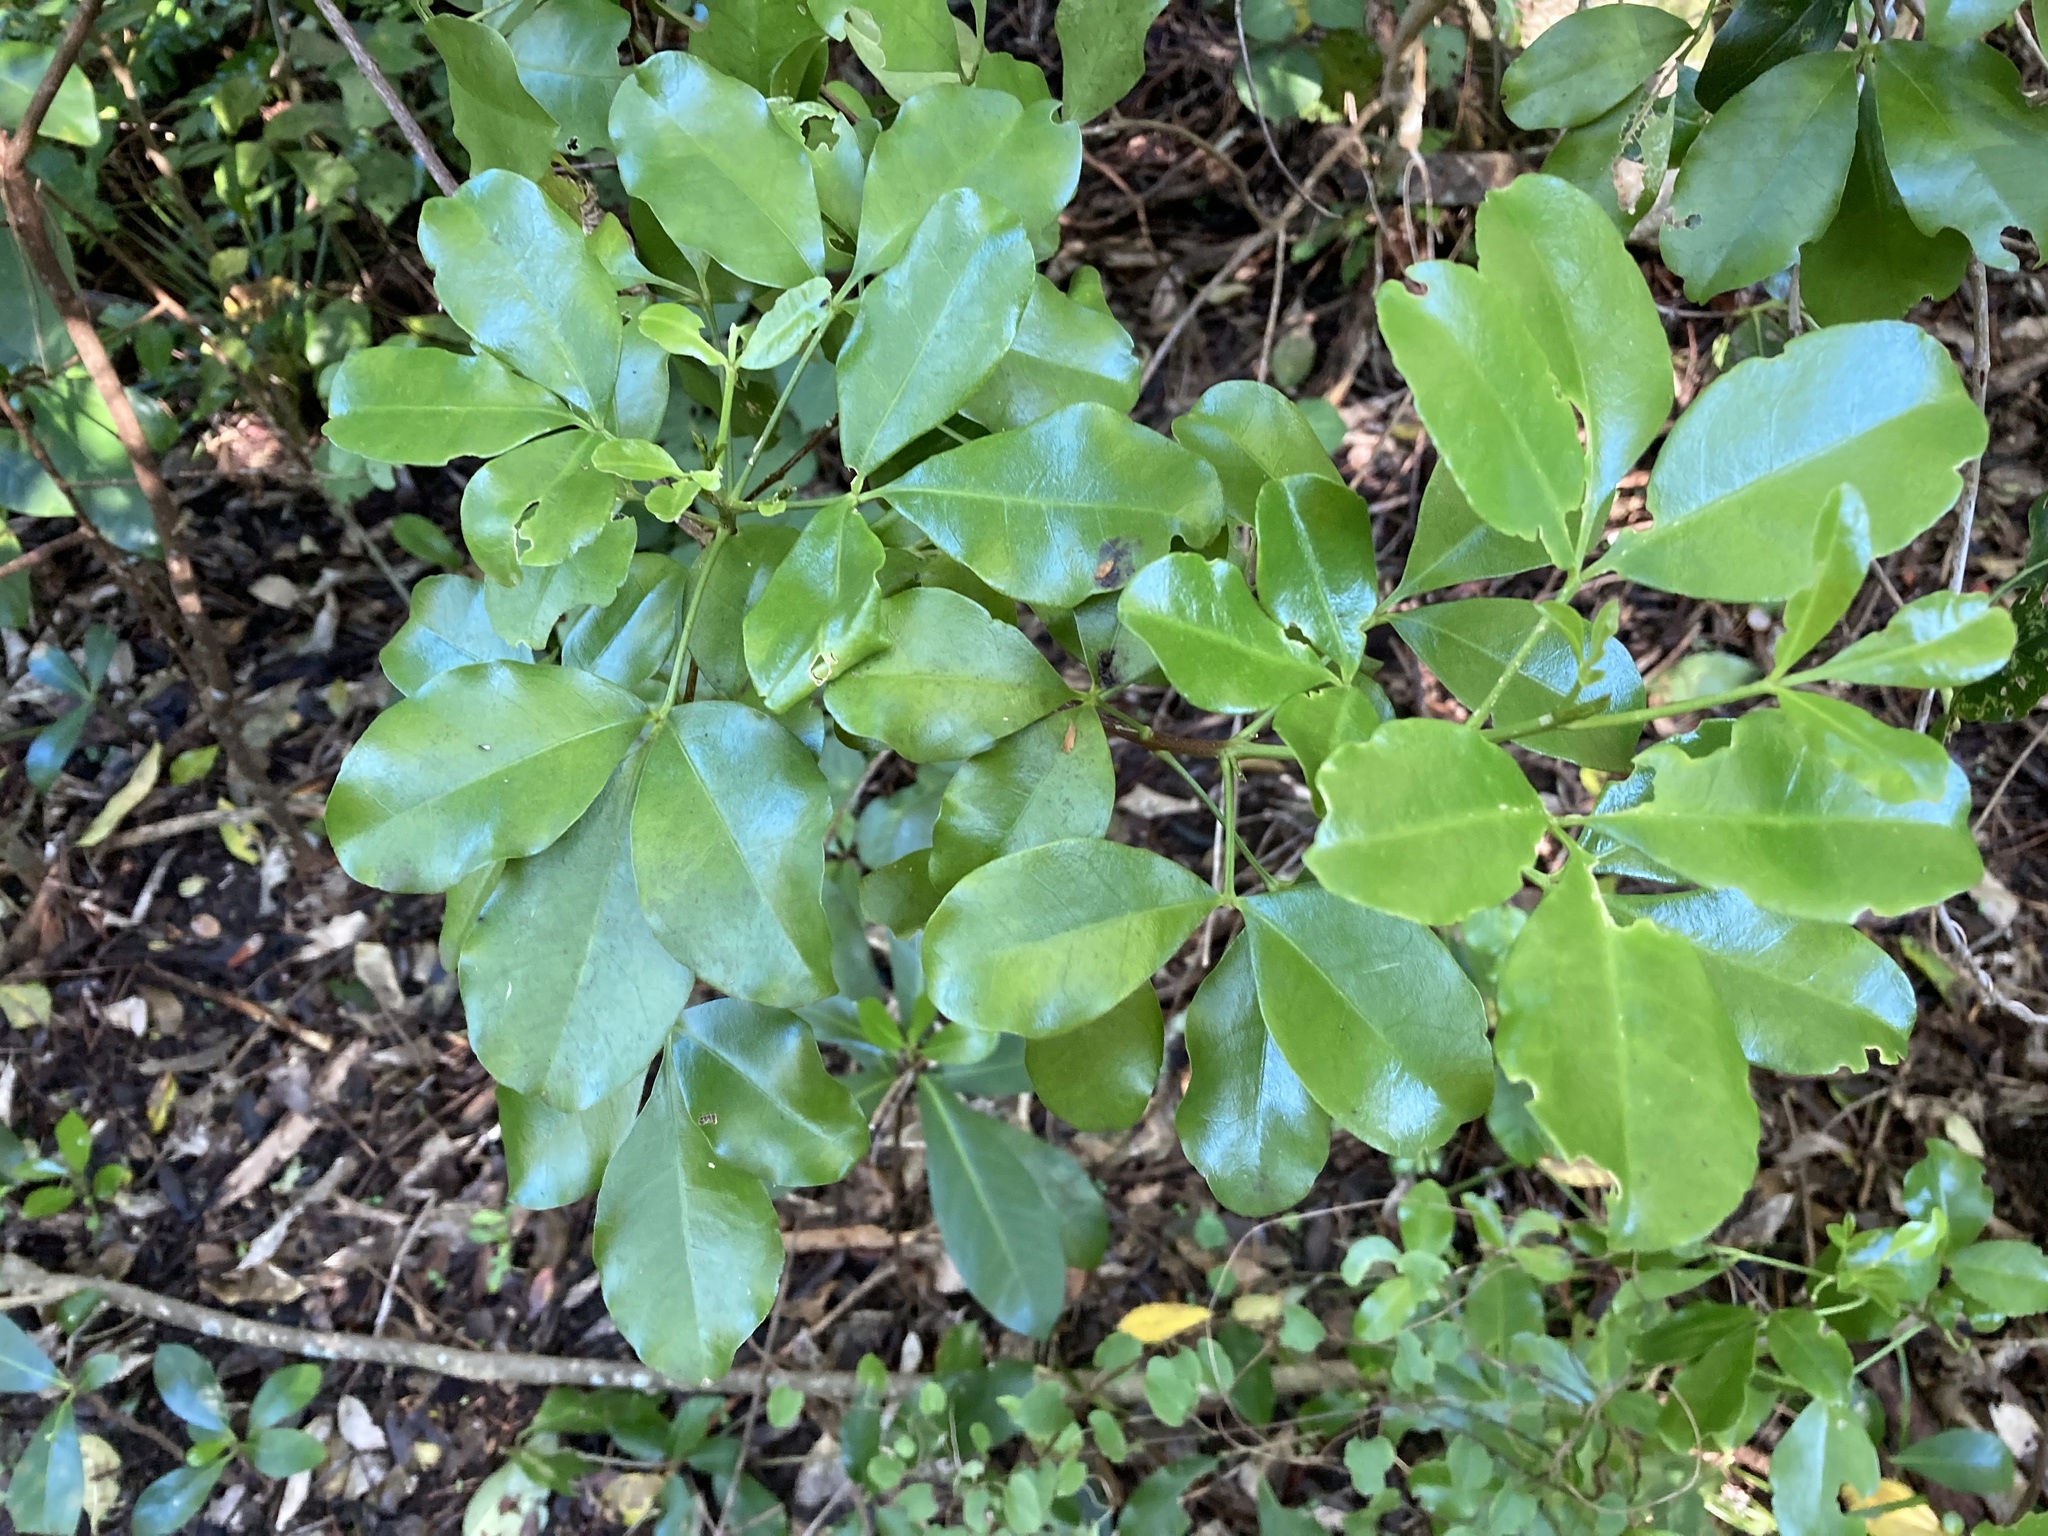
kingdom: Plantae
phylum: Tracheophyta
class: Magnoliopsida
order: Sapindales
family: Rutaceae
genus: Melicope
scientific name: Melicope ternata
